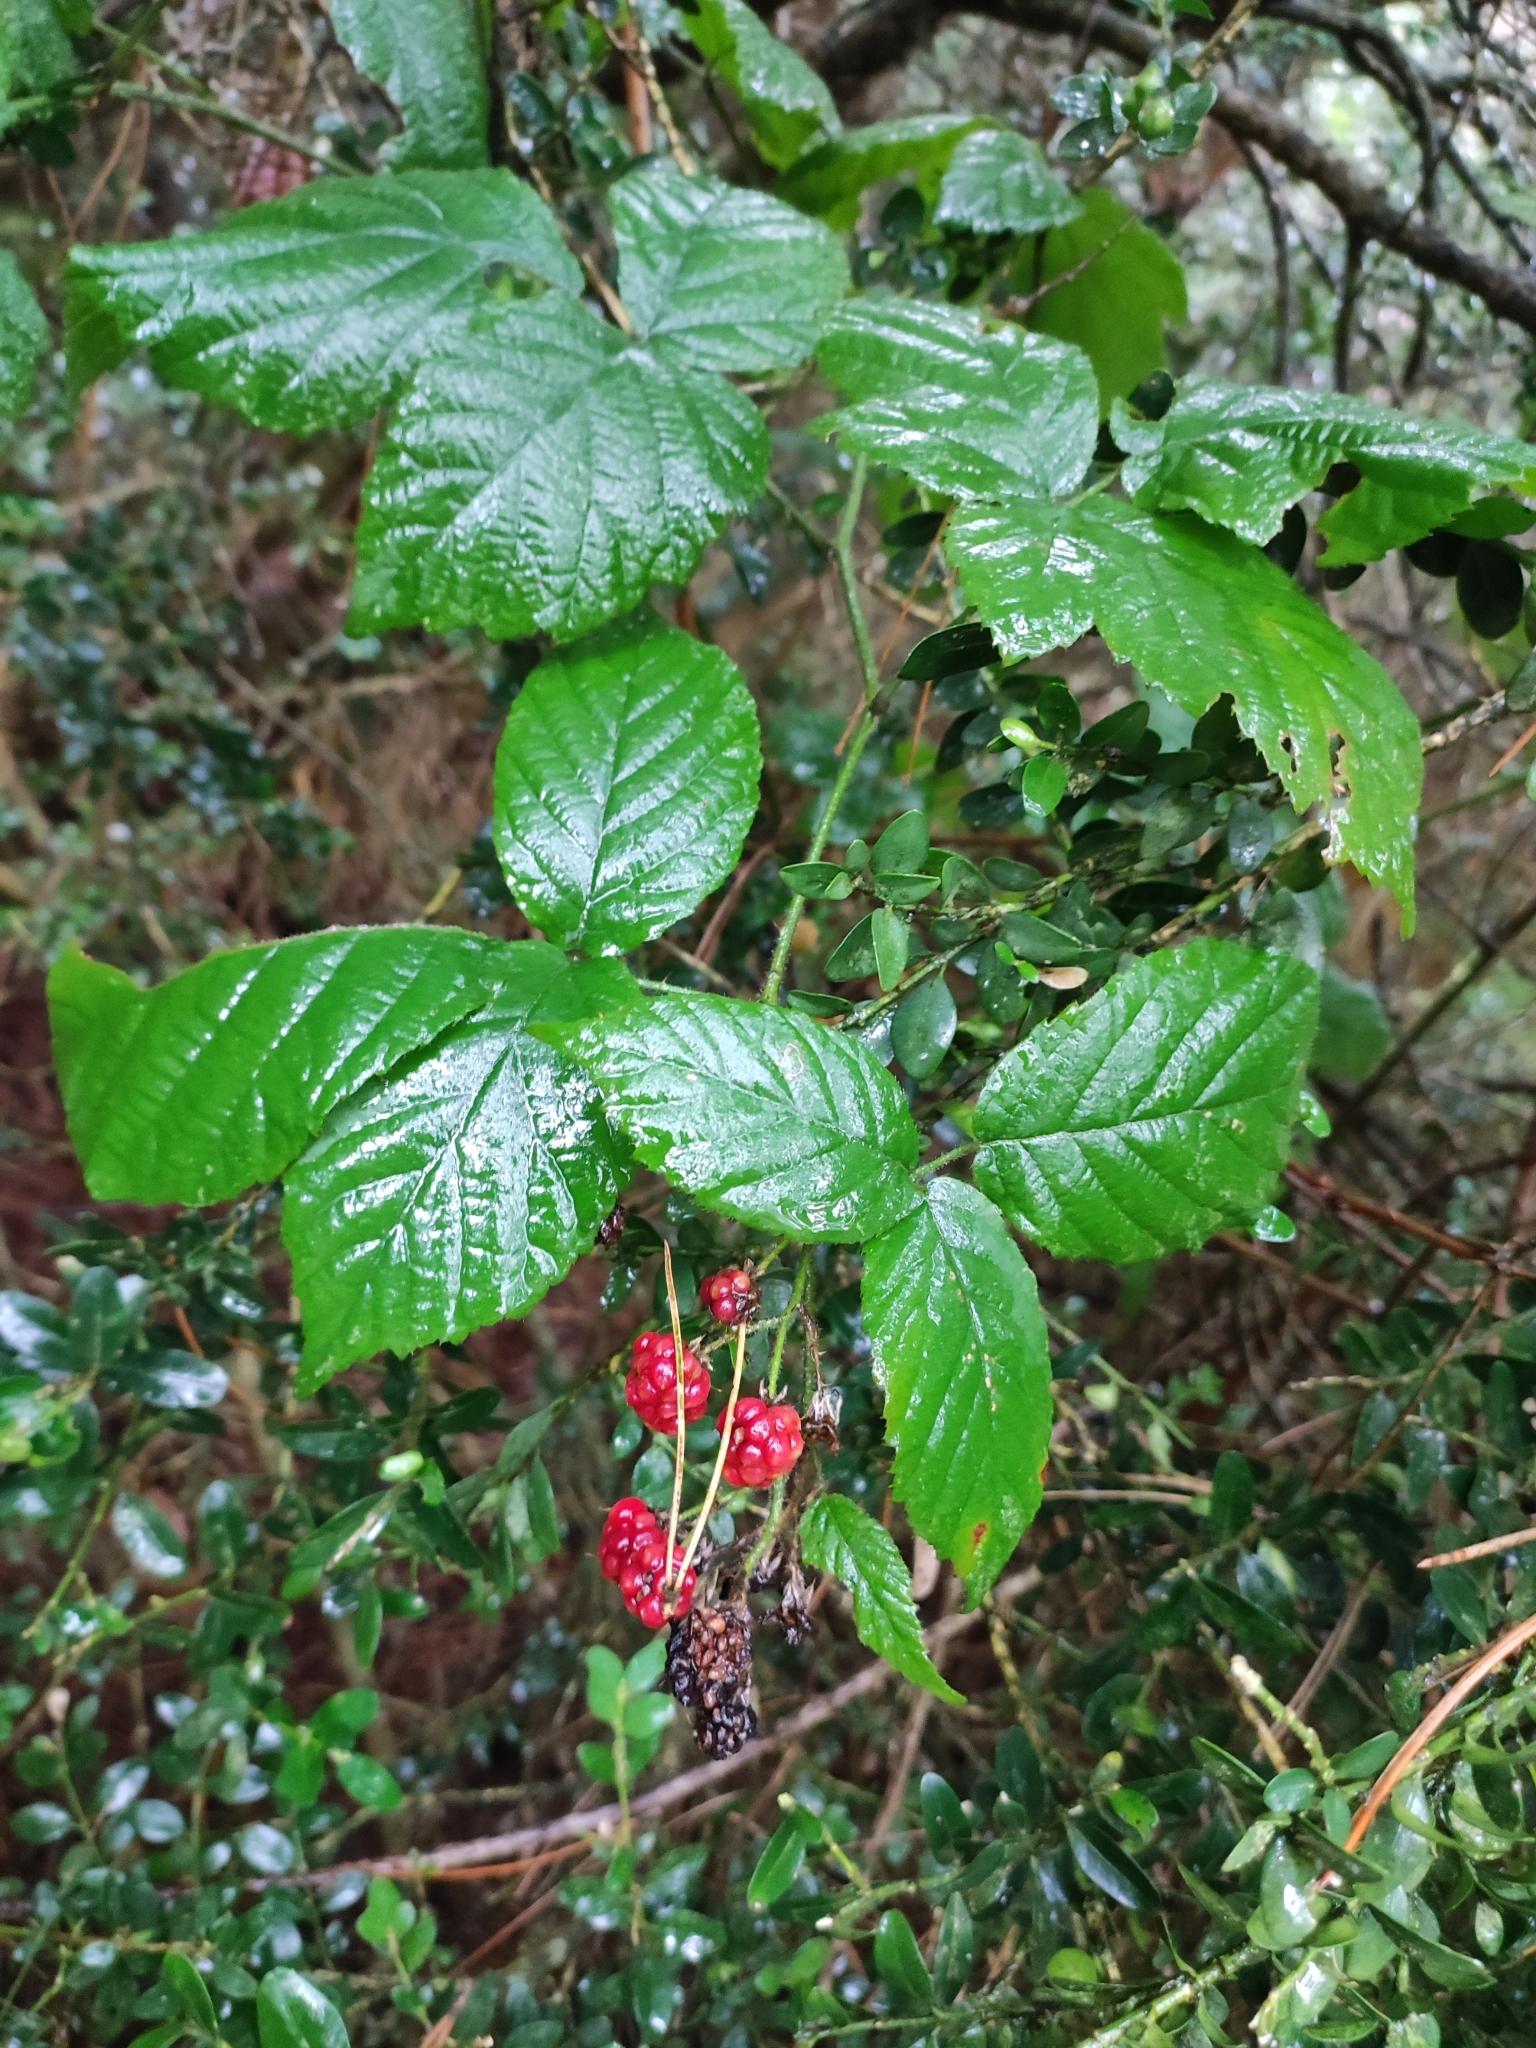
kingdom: Plantae
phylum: Tracheophyta
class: Magnoliopsida
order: Rosales
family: Rosaceae
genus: Rubus
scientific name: Rubus ulmifolius
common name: Elmleaf blackberry
